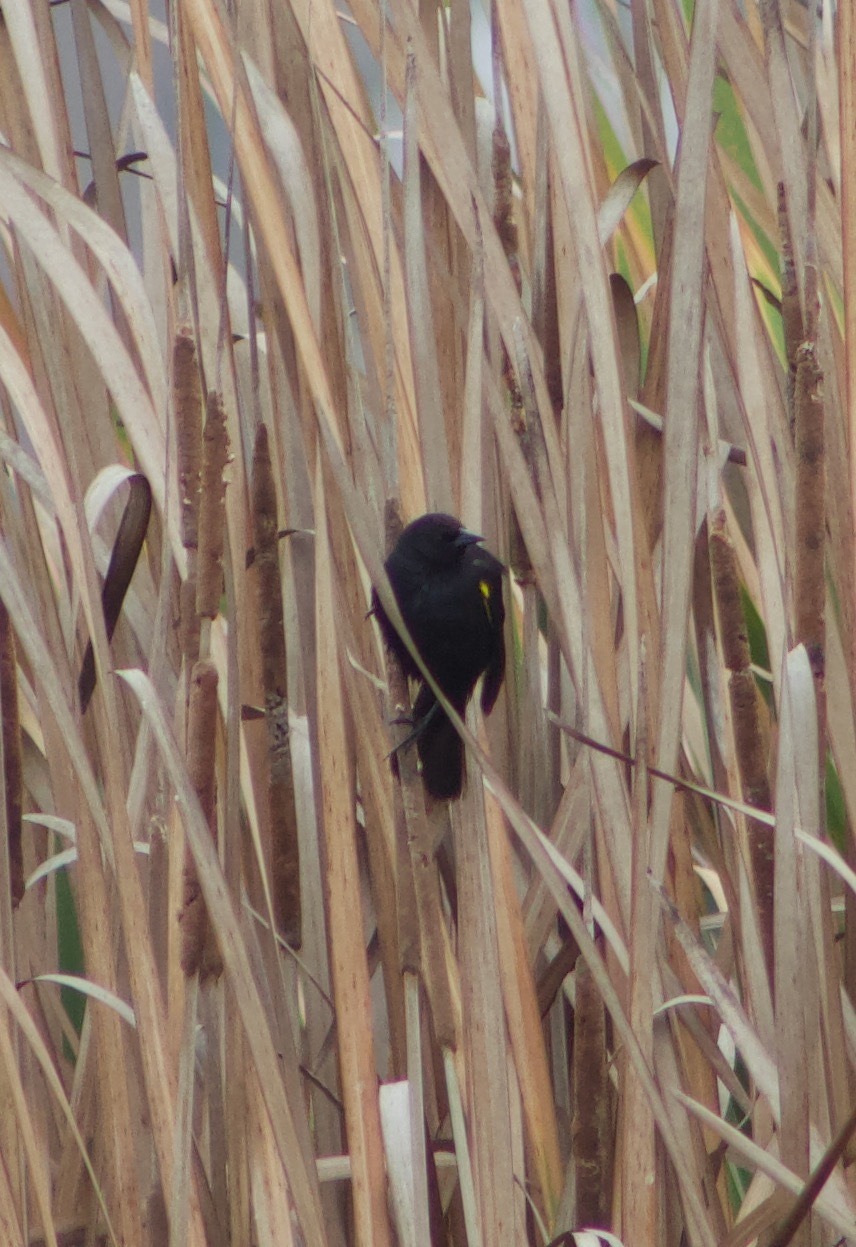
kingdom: Animalia
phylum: Chordata
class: Aves
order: Passeriformes
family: Icteridae
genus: Agelasticus
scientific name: Agelasticus thilius
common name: Yellow-winged blackbird
